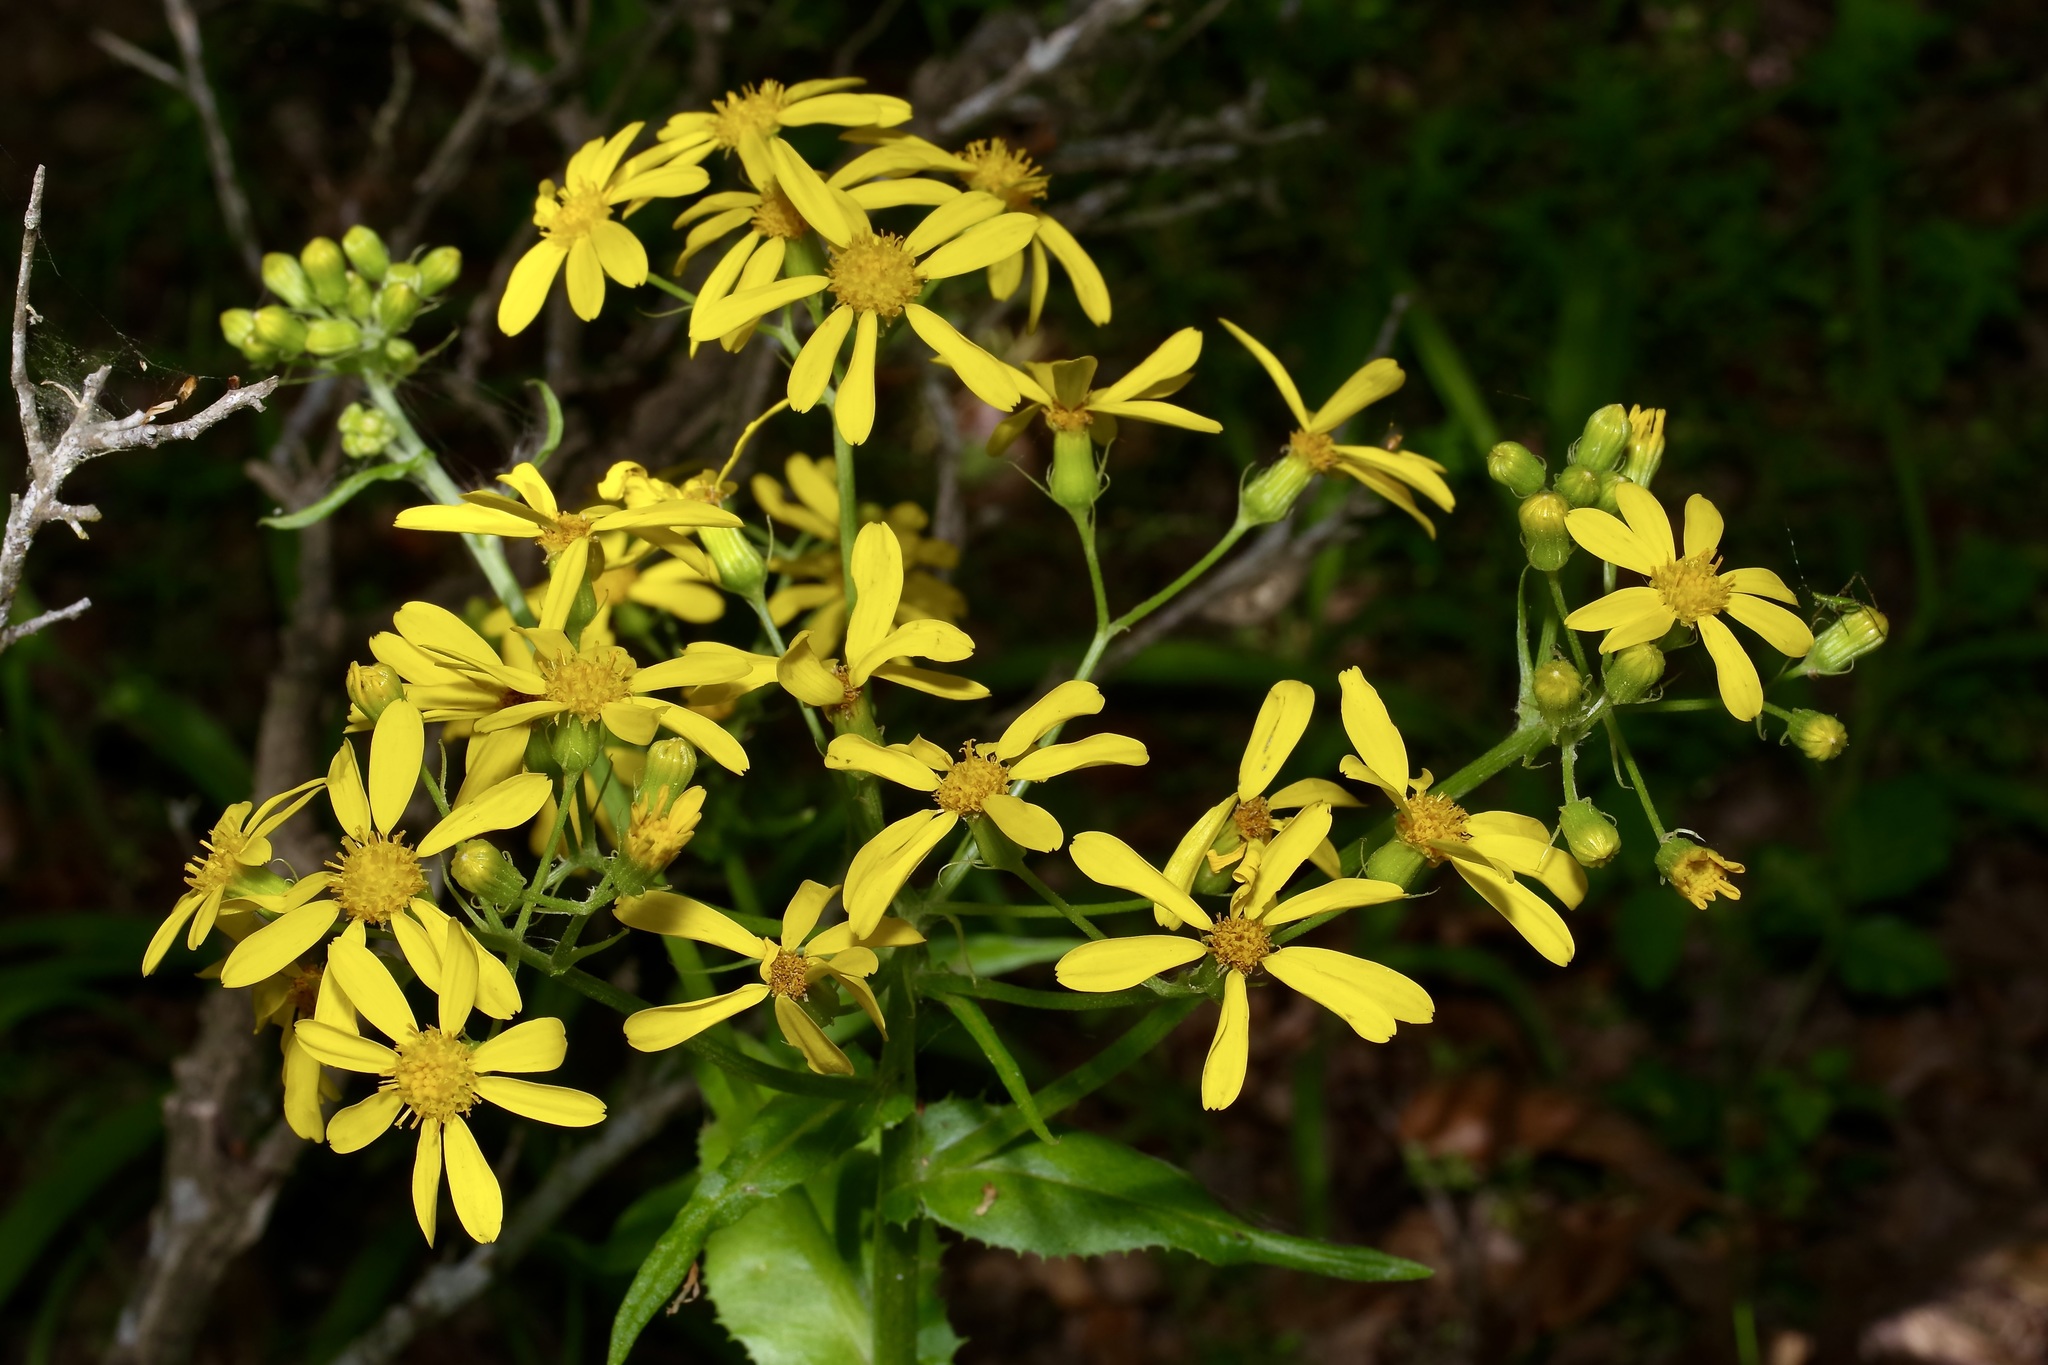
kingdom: Plantae
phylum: Tracheophyta
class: Magnoliopsida
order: Asterales
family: Asteraceae
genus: Senecio
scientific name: Senecio ampullaceus
